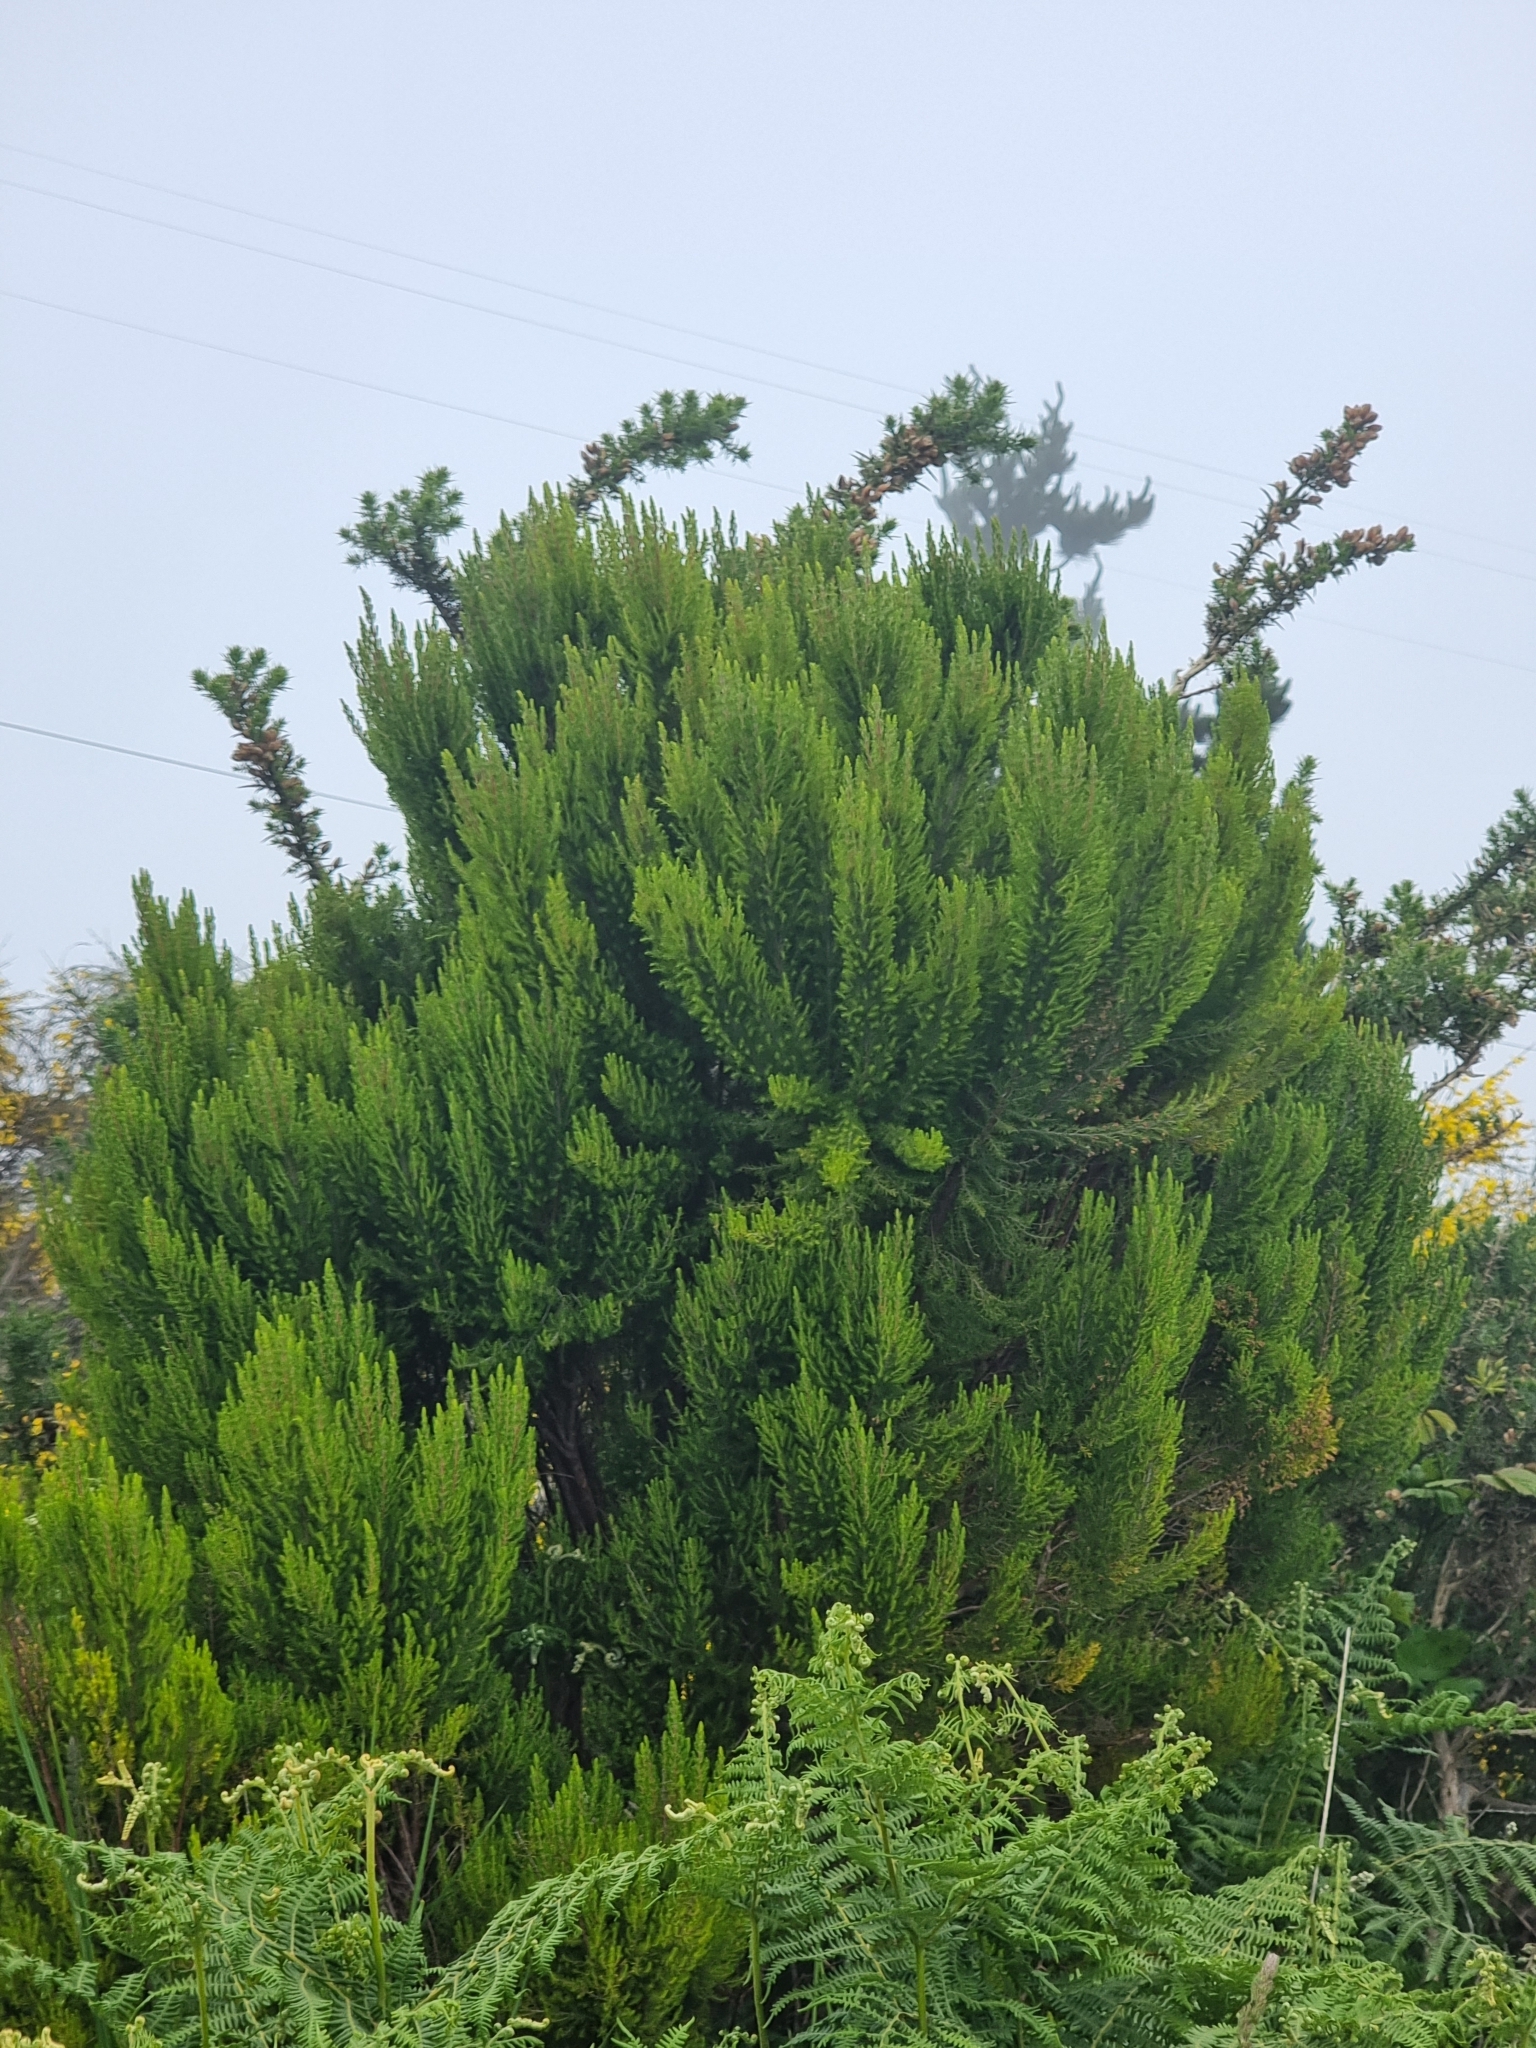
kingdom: Plantae
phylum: Tracheophyta
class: Magnoliopsida
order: Ericales
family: Ericaceae
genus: Erica
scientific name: Erica canariensis
